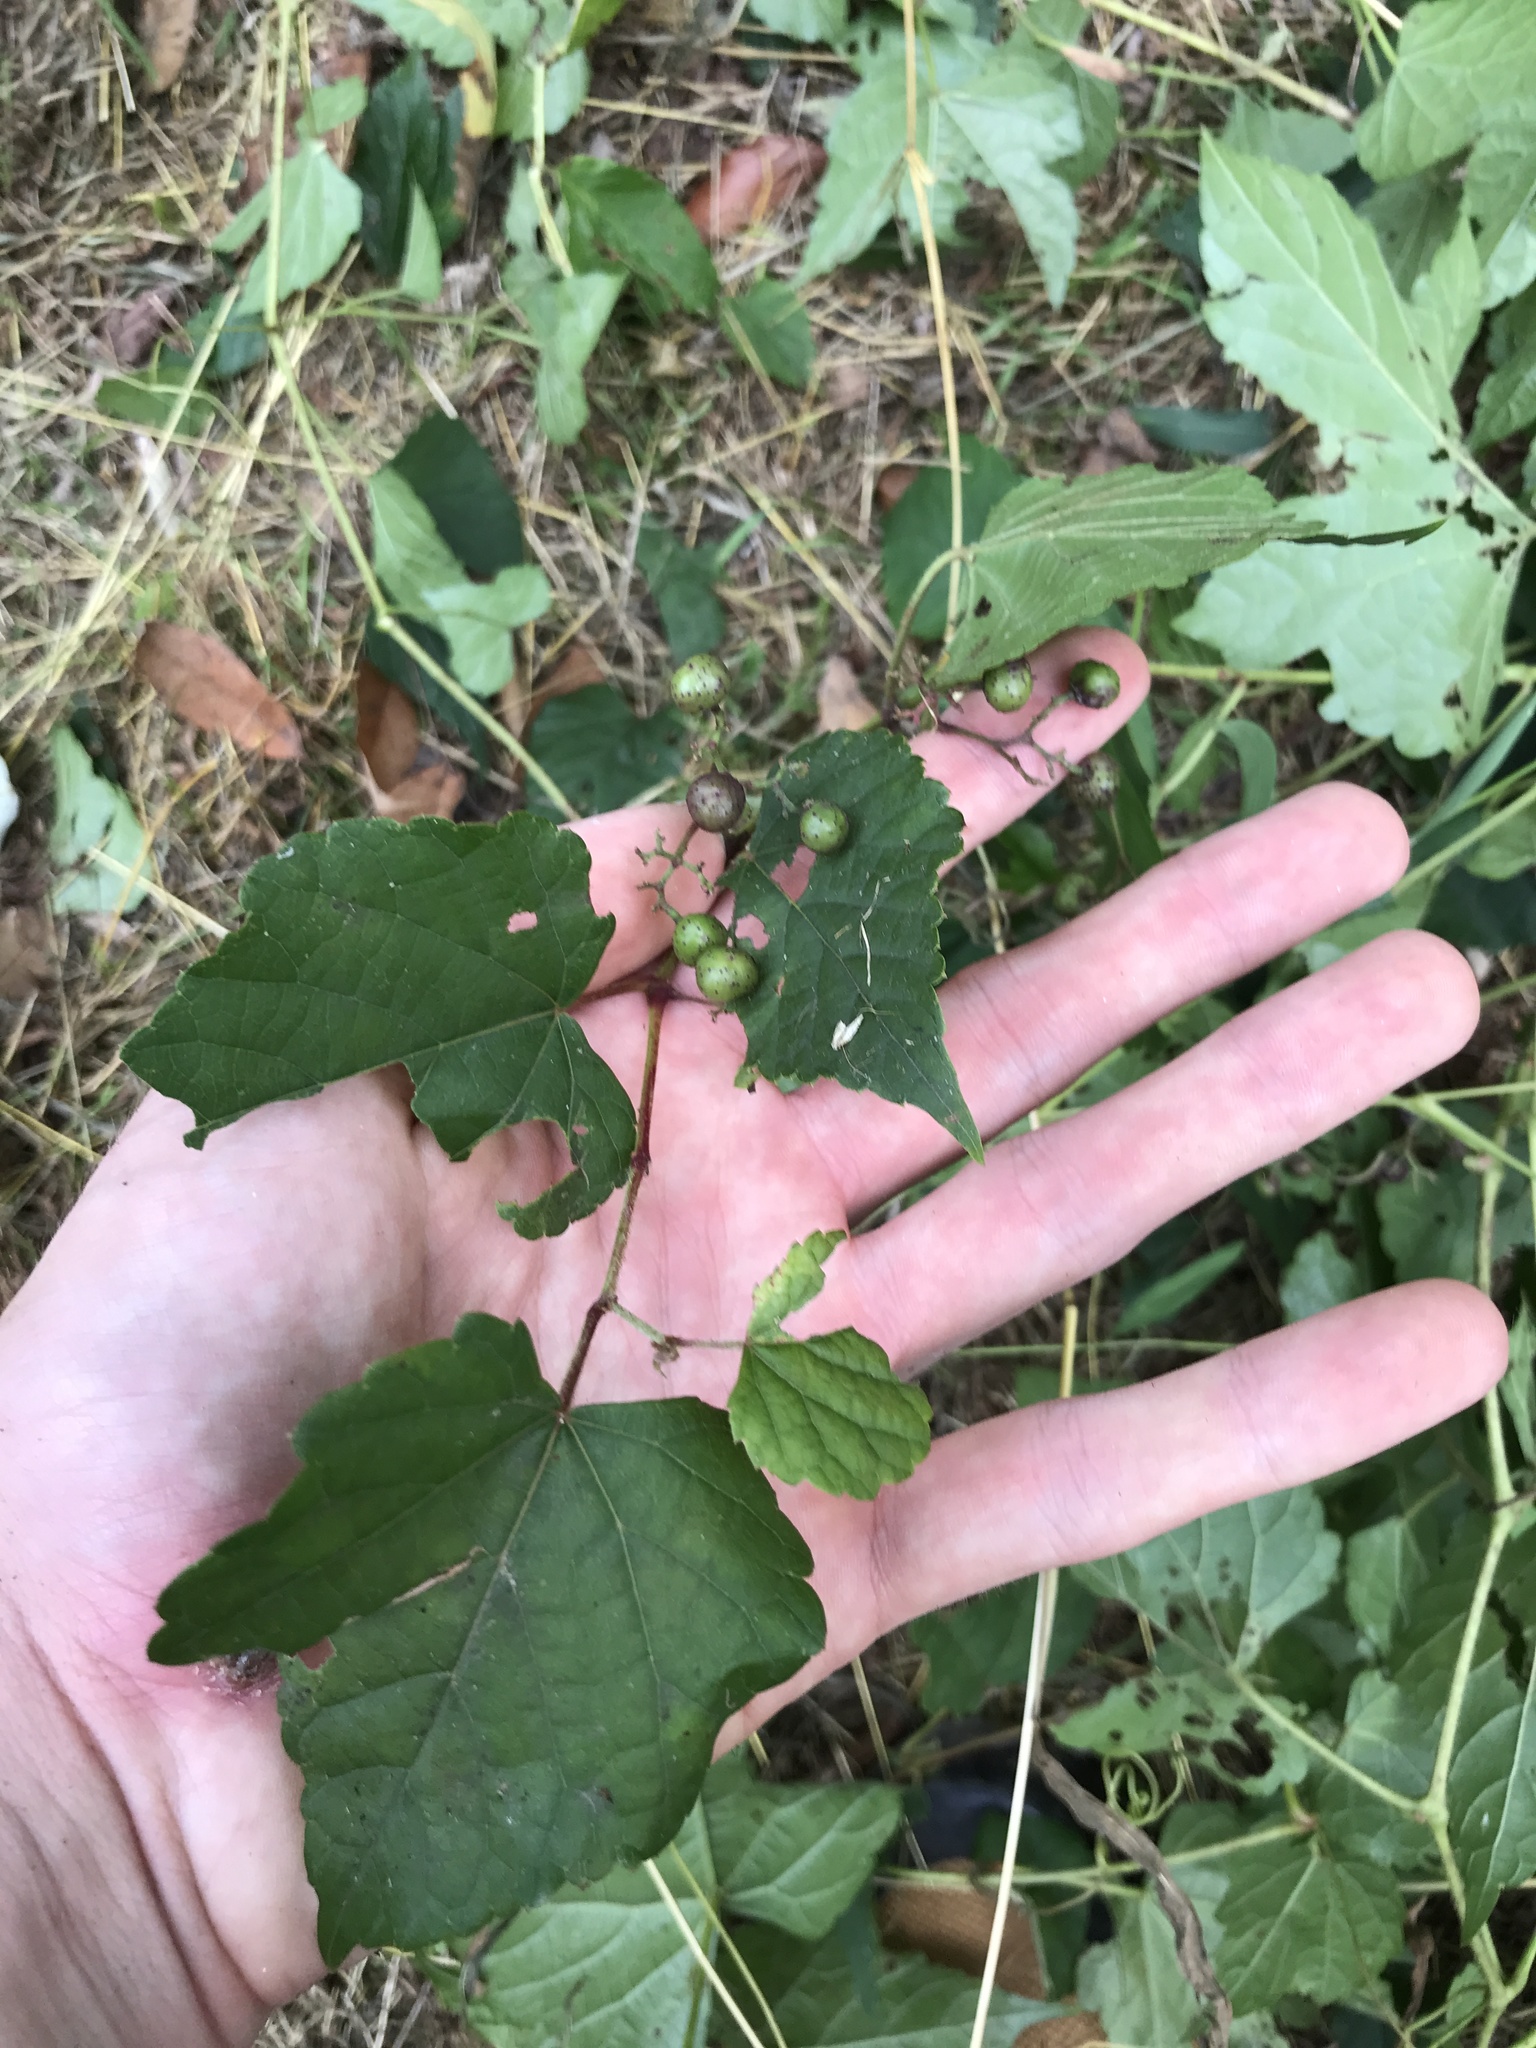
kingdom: Plantae
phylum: Tracheophyta
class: Magnoliopsida
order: Vitales
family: Vitaceae
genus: Ampelopsis
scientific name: Ampelopsis glandulosa
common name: Amur peppervine
